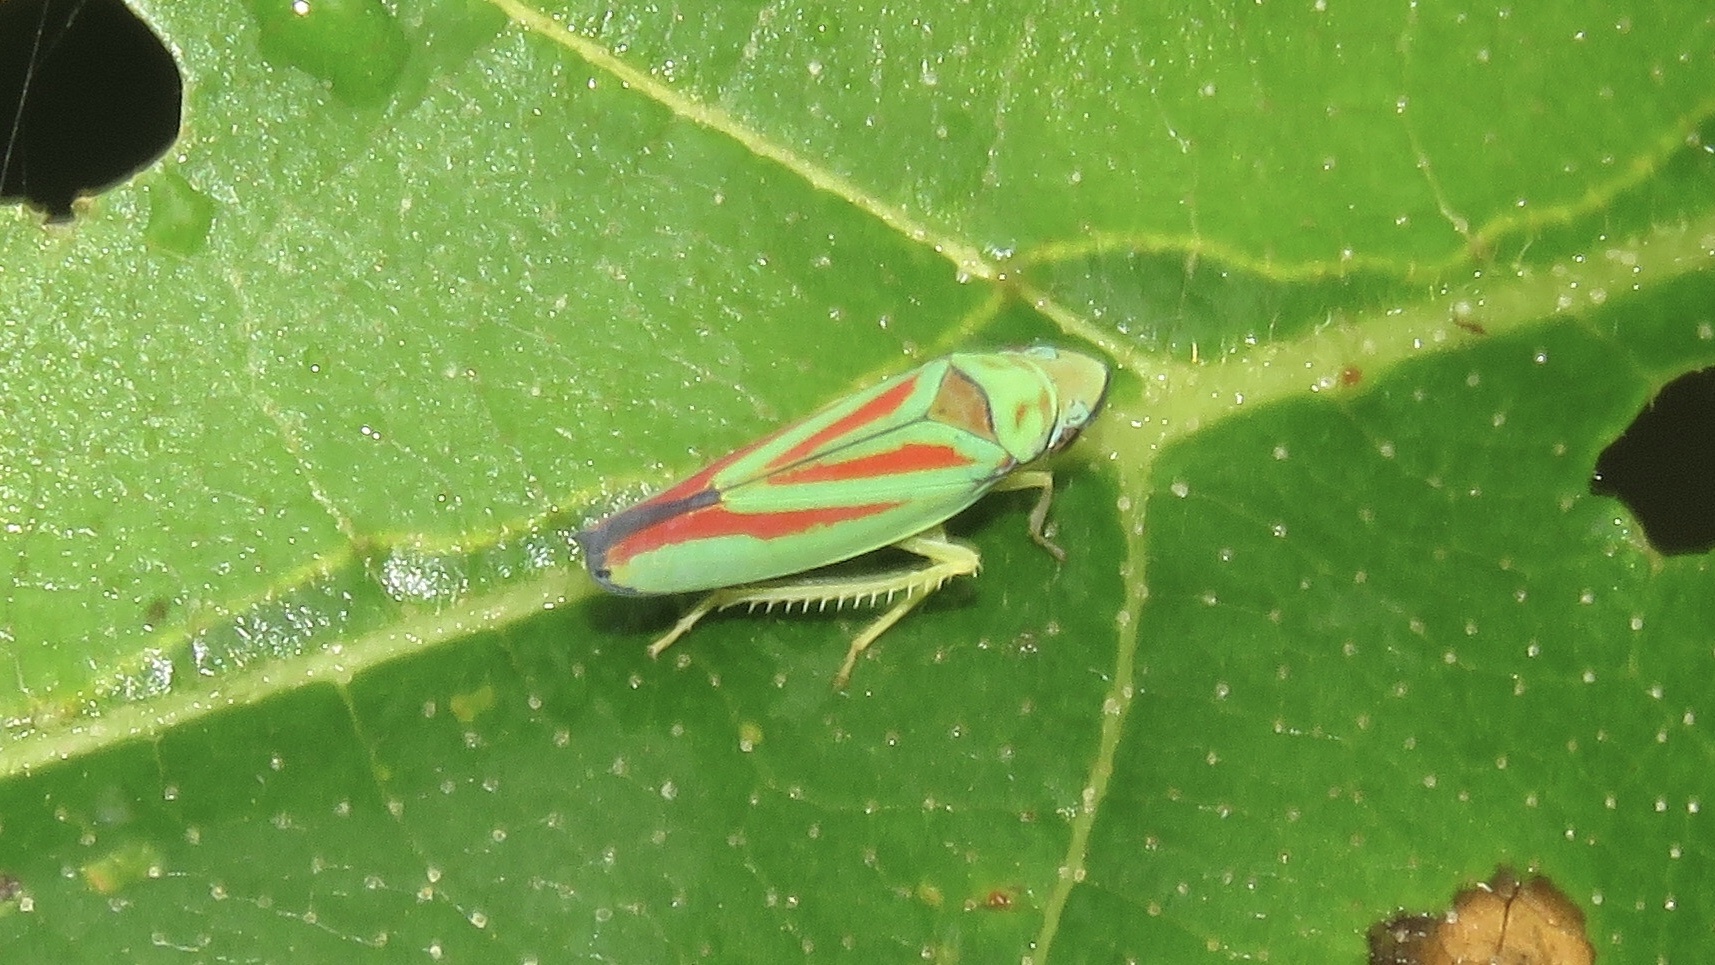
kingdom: Animalia
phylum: Arthropoda
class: Insecta
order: Hemiptera
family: Cicadellidae
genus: Graphocephala
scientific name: Graphocephala fennahi
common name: Rhododendron leafhopper
